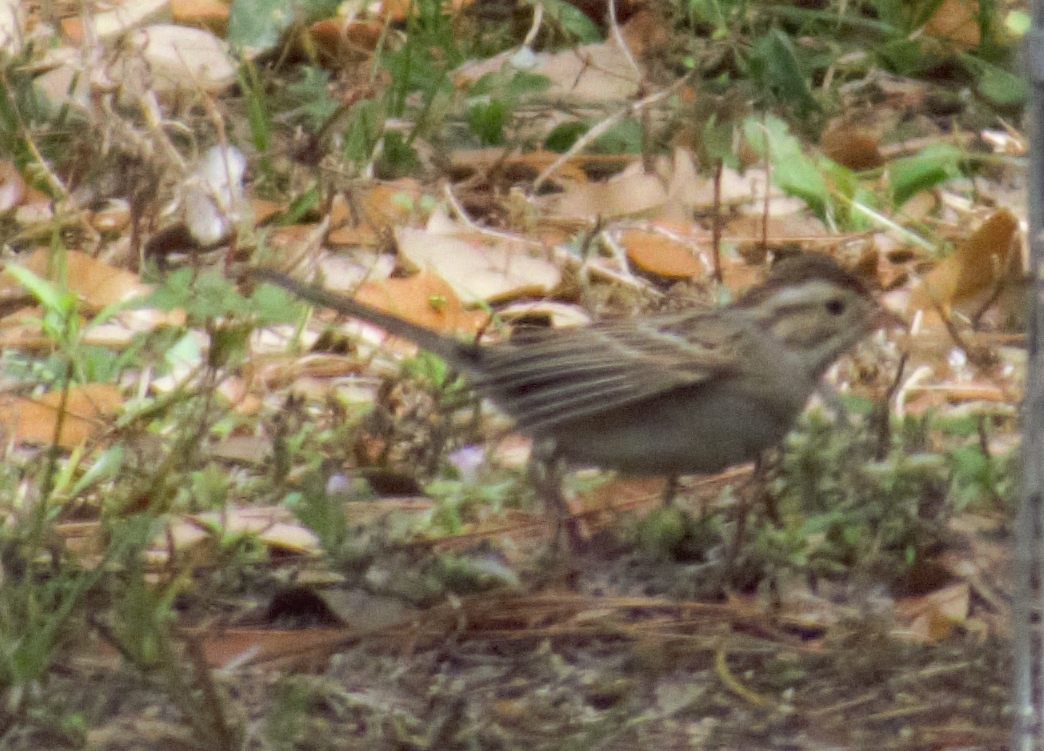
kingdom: Animalia
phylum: Chordata
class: Aves
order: Passeriformes
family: Passerellidae
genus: Spizella
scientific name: Spizella pallida
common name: Clay-colored sparrow
